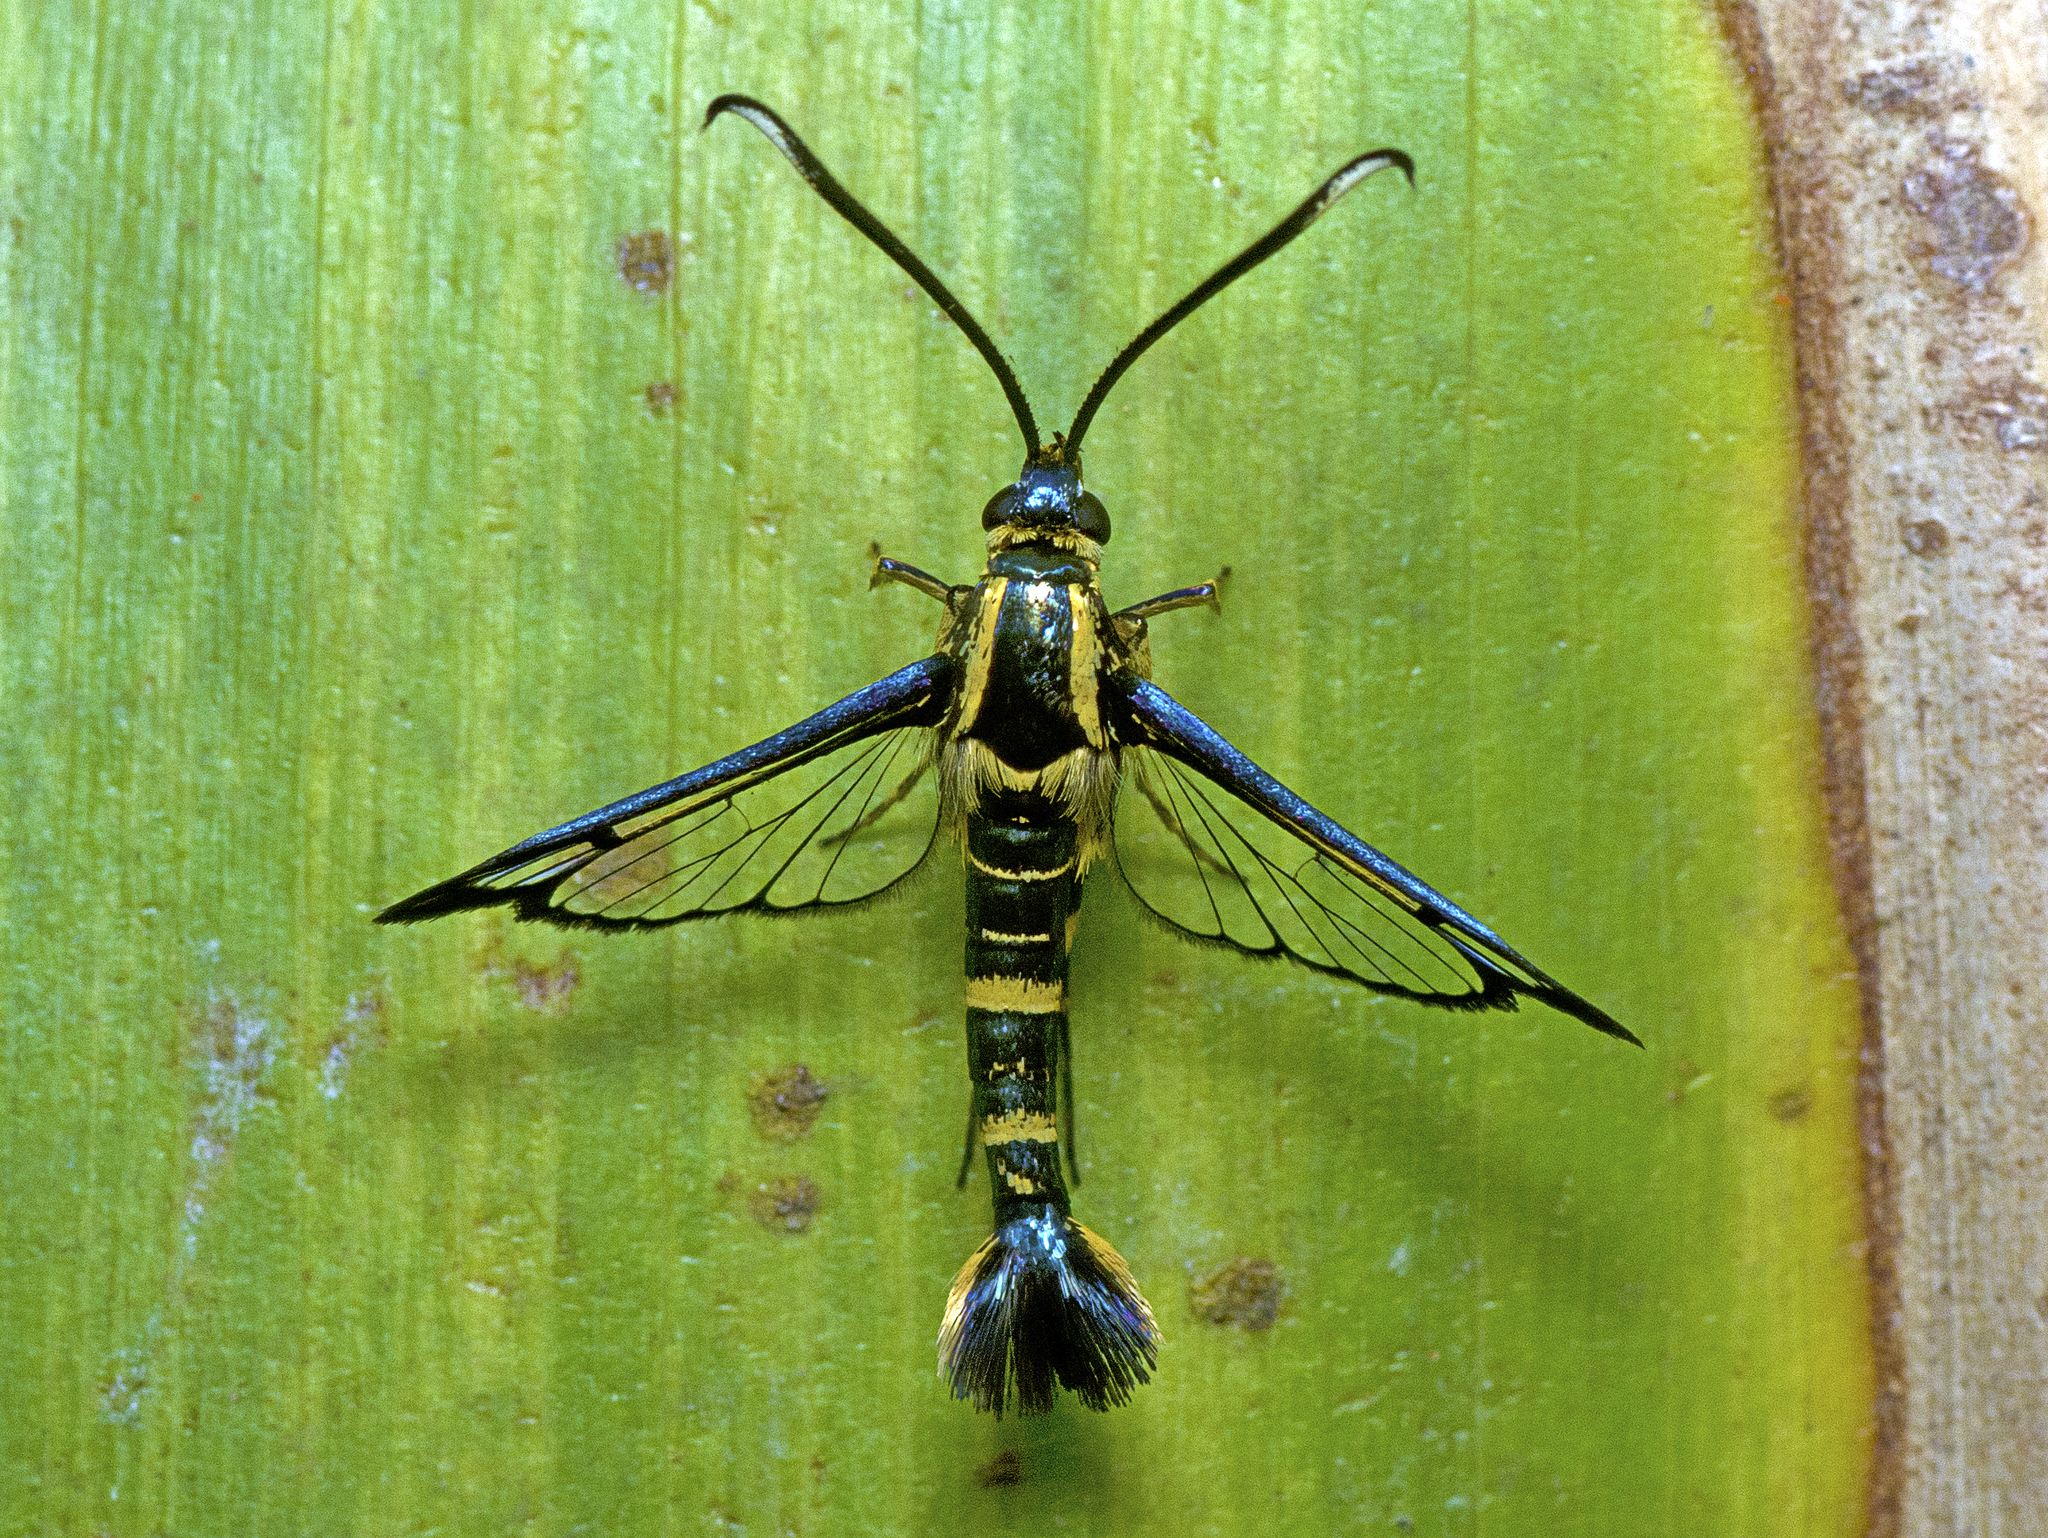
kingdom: Animalia
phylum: Arthropoda
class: Insecta
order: Lepidoptera
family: Sesiidae
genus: Paranthrenella
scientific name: Paranthrenella chrysophanes
